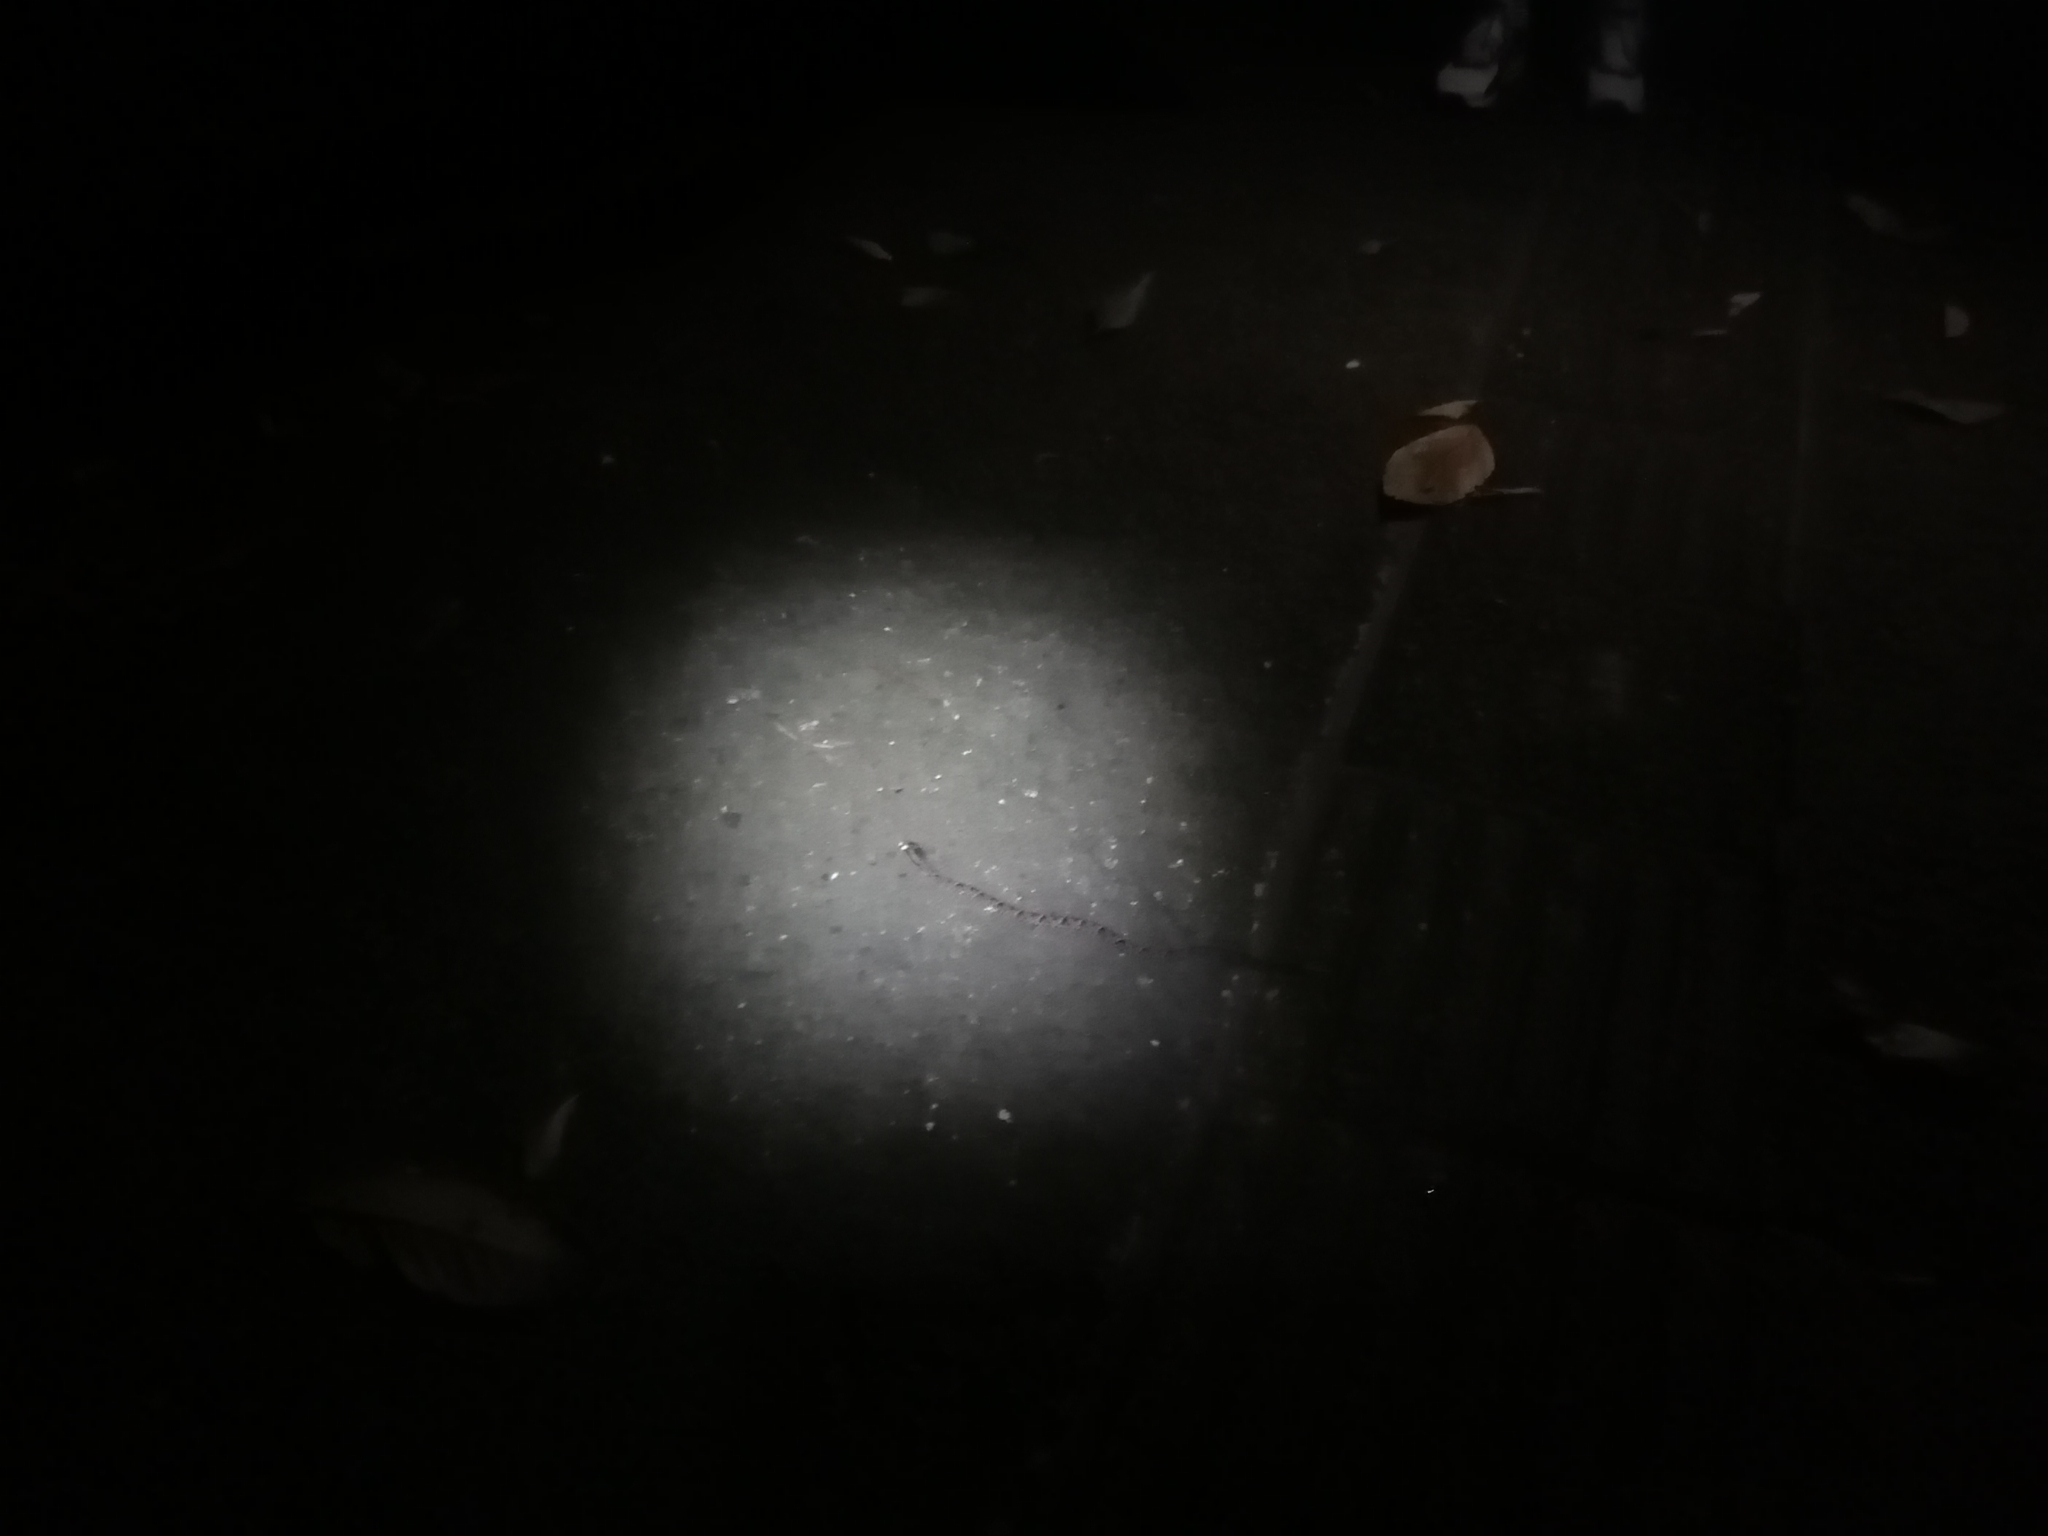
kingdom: Animalia
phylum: Chordata
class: Squamata
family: Viperidae
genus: Bothrops
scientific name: Bothrops asper
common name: Terciopelo
